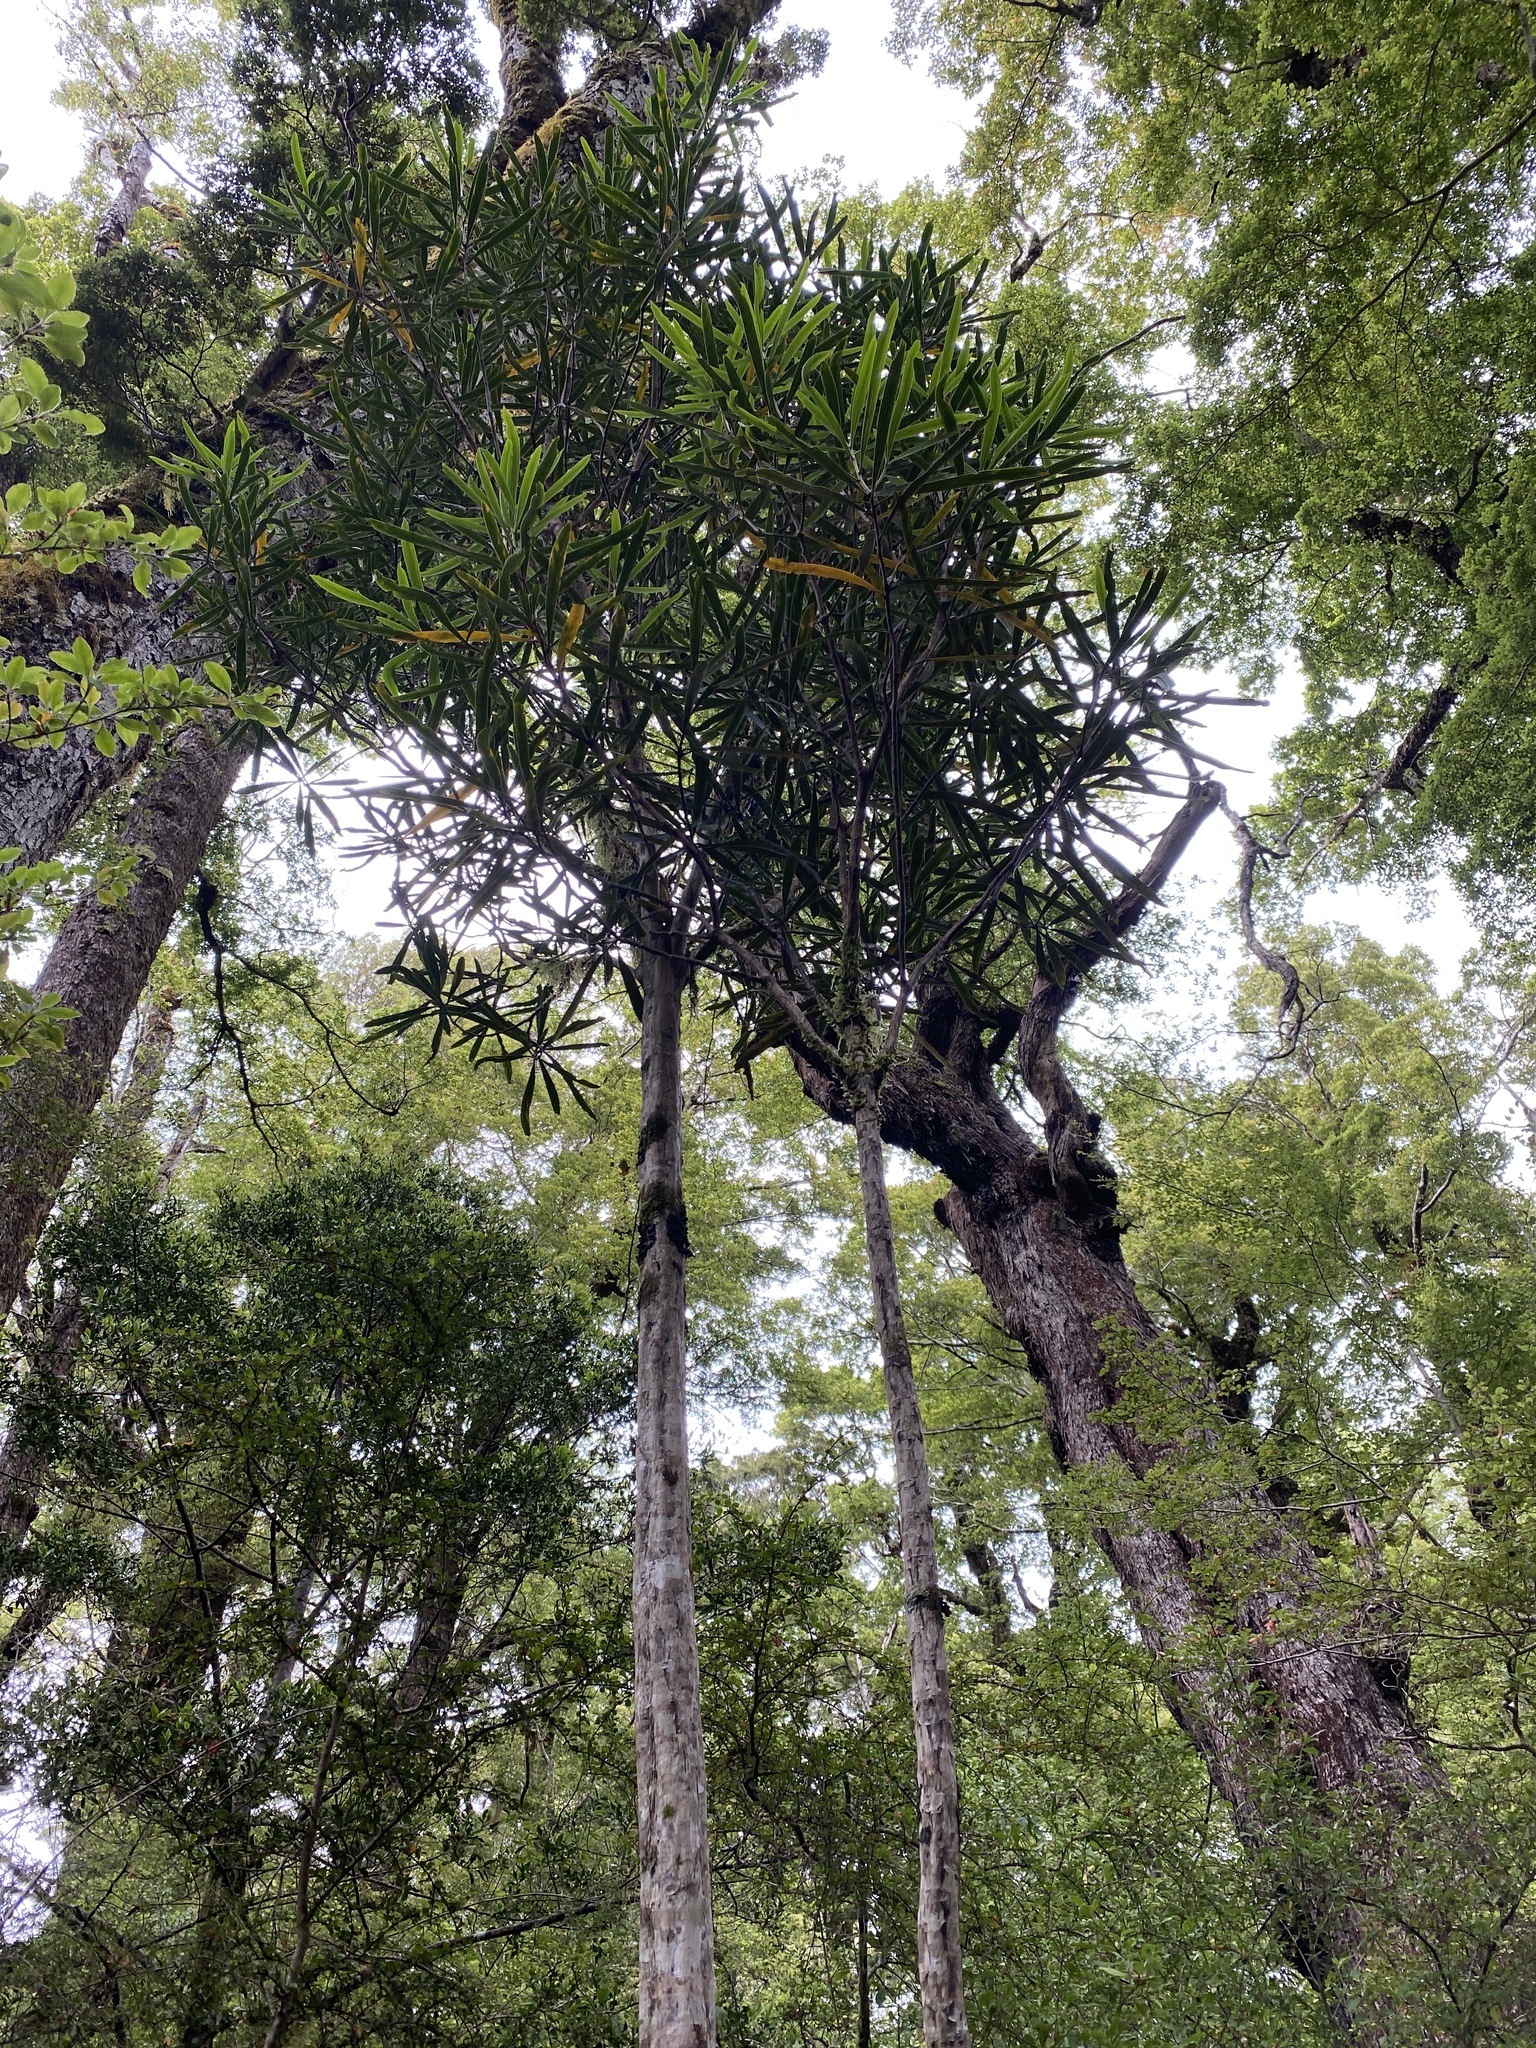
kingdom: Plantae
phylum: Tracheophyta
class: Magnoliopsida
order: Apiales
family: Araliaceae
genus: Pseudopanax
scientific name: Pseudopanax crassifolius
